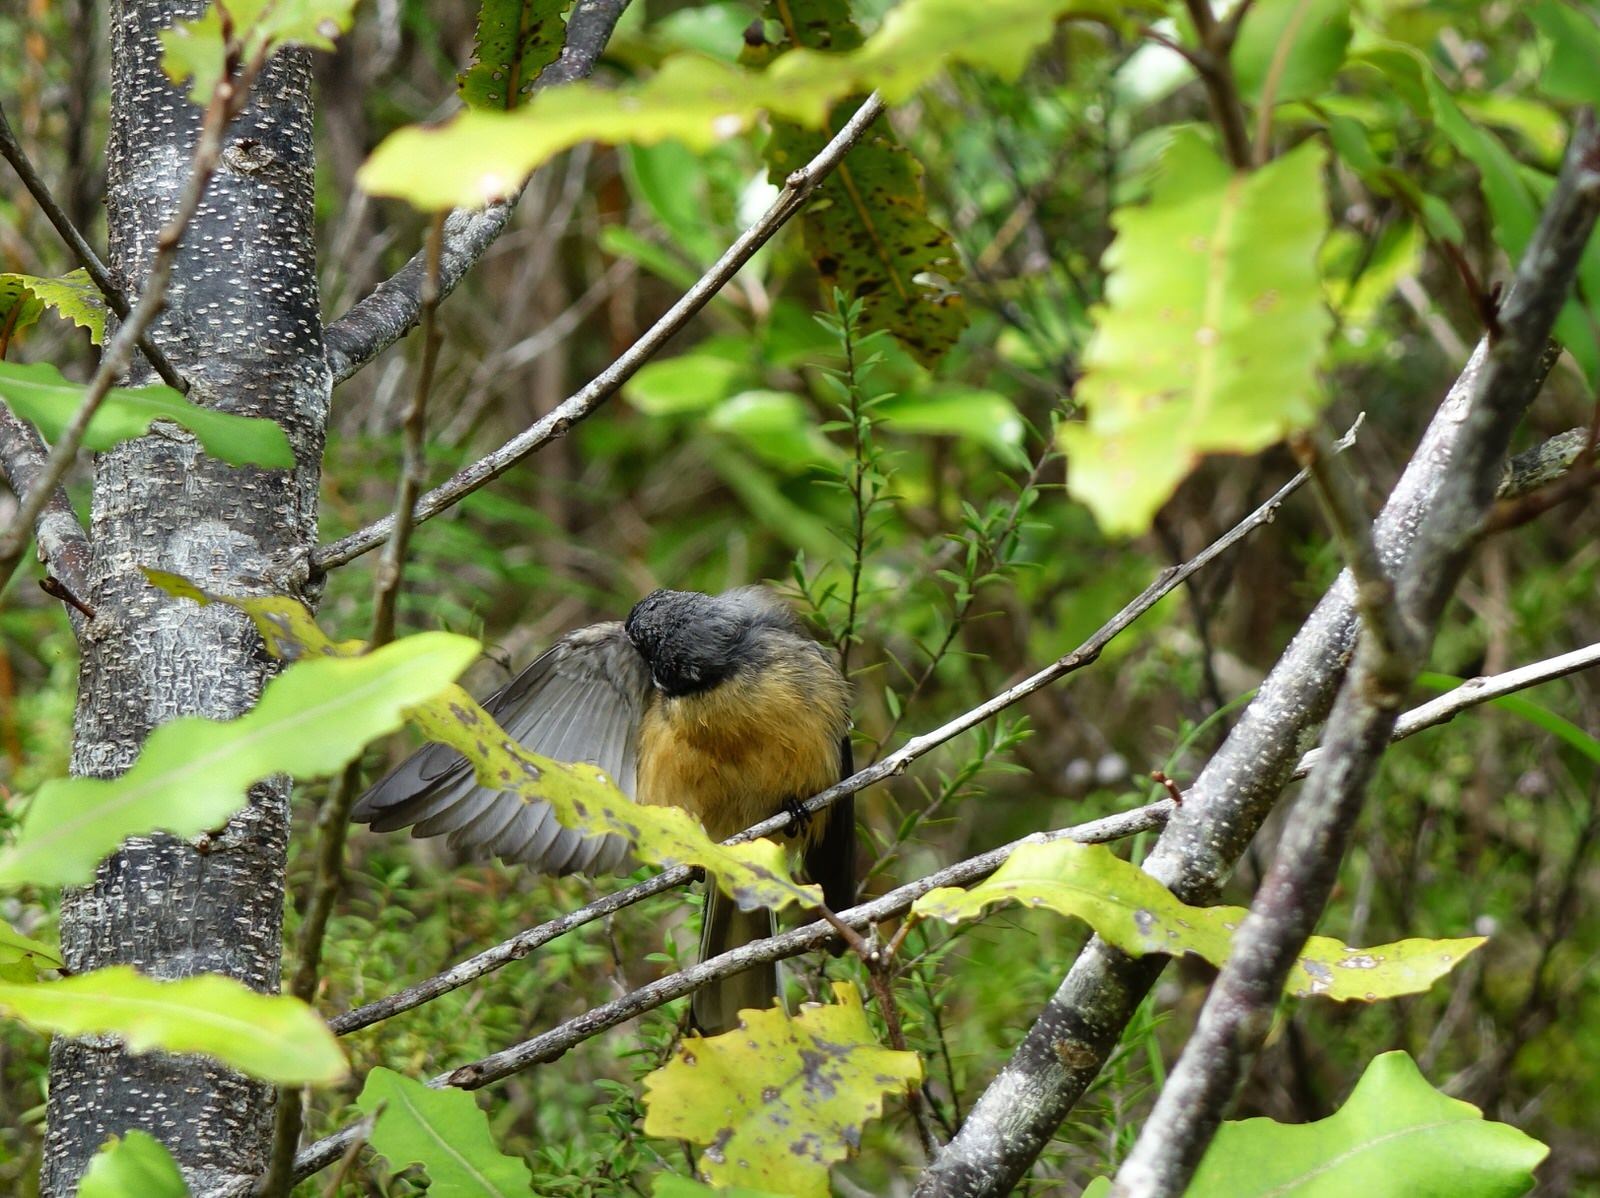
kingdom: Animalia
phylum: Chordata
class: Aves
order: Passeriformes
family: Rhipiduridae
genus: Rhipidura
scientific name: Rhipidura fuliginosa
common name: New zealand fantail
